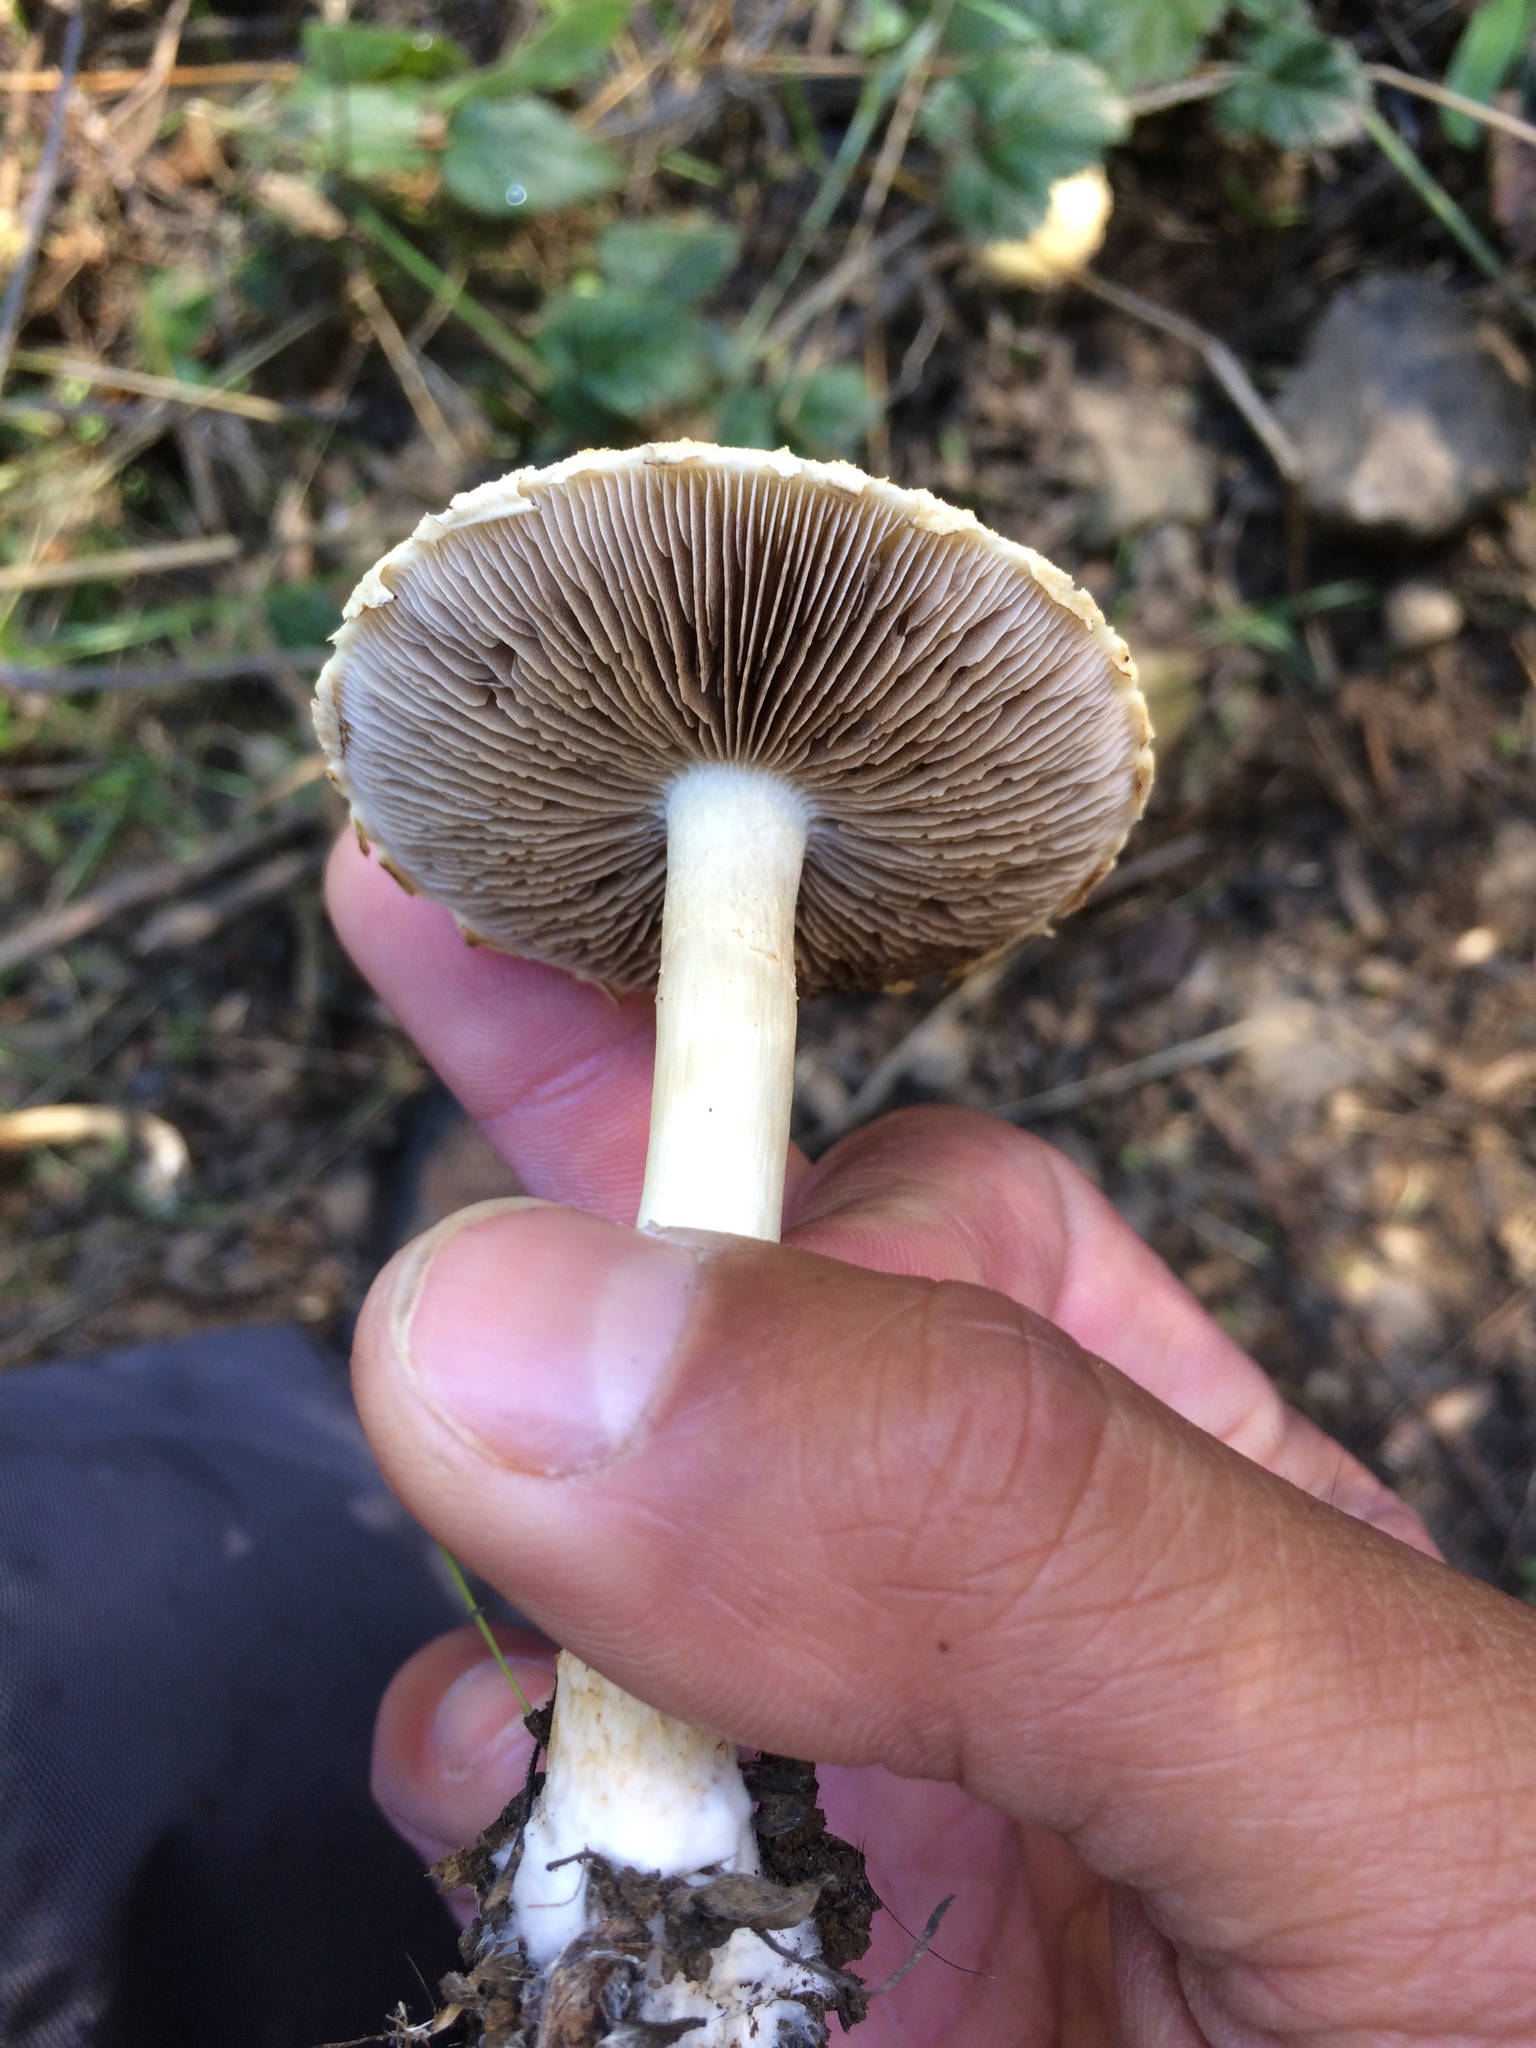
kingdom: Fungi
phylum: Basidiomycota
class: Agaricomycetes
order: Agaricales
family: Strophariaceae
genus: Stropharia
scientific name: Stropharia ambigua
